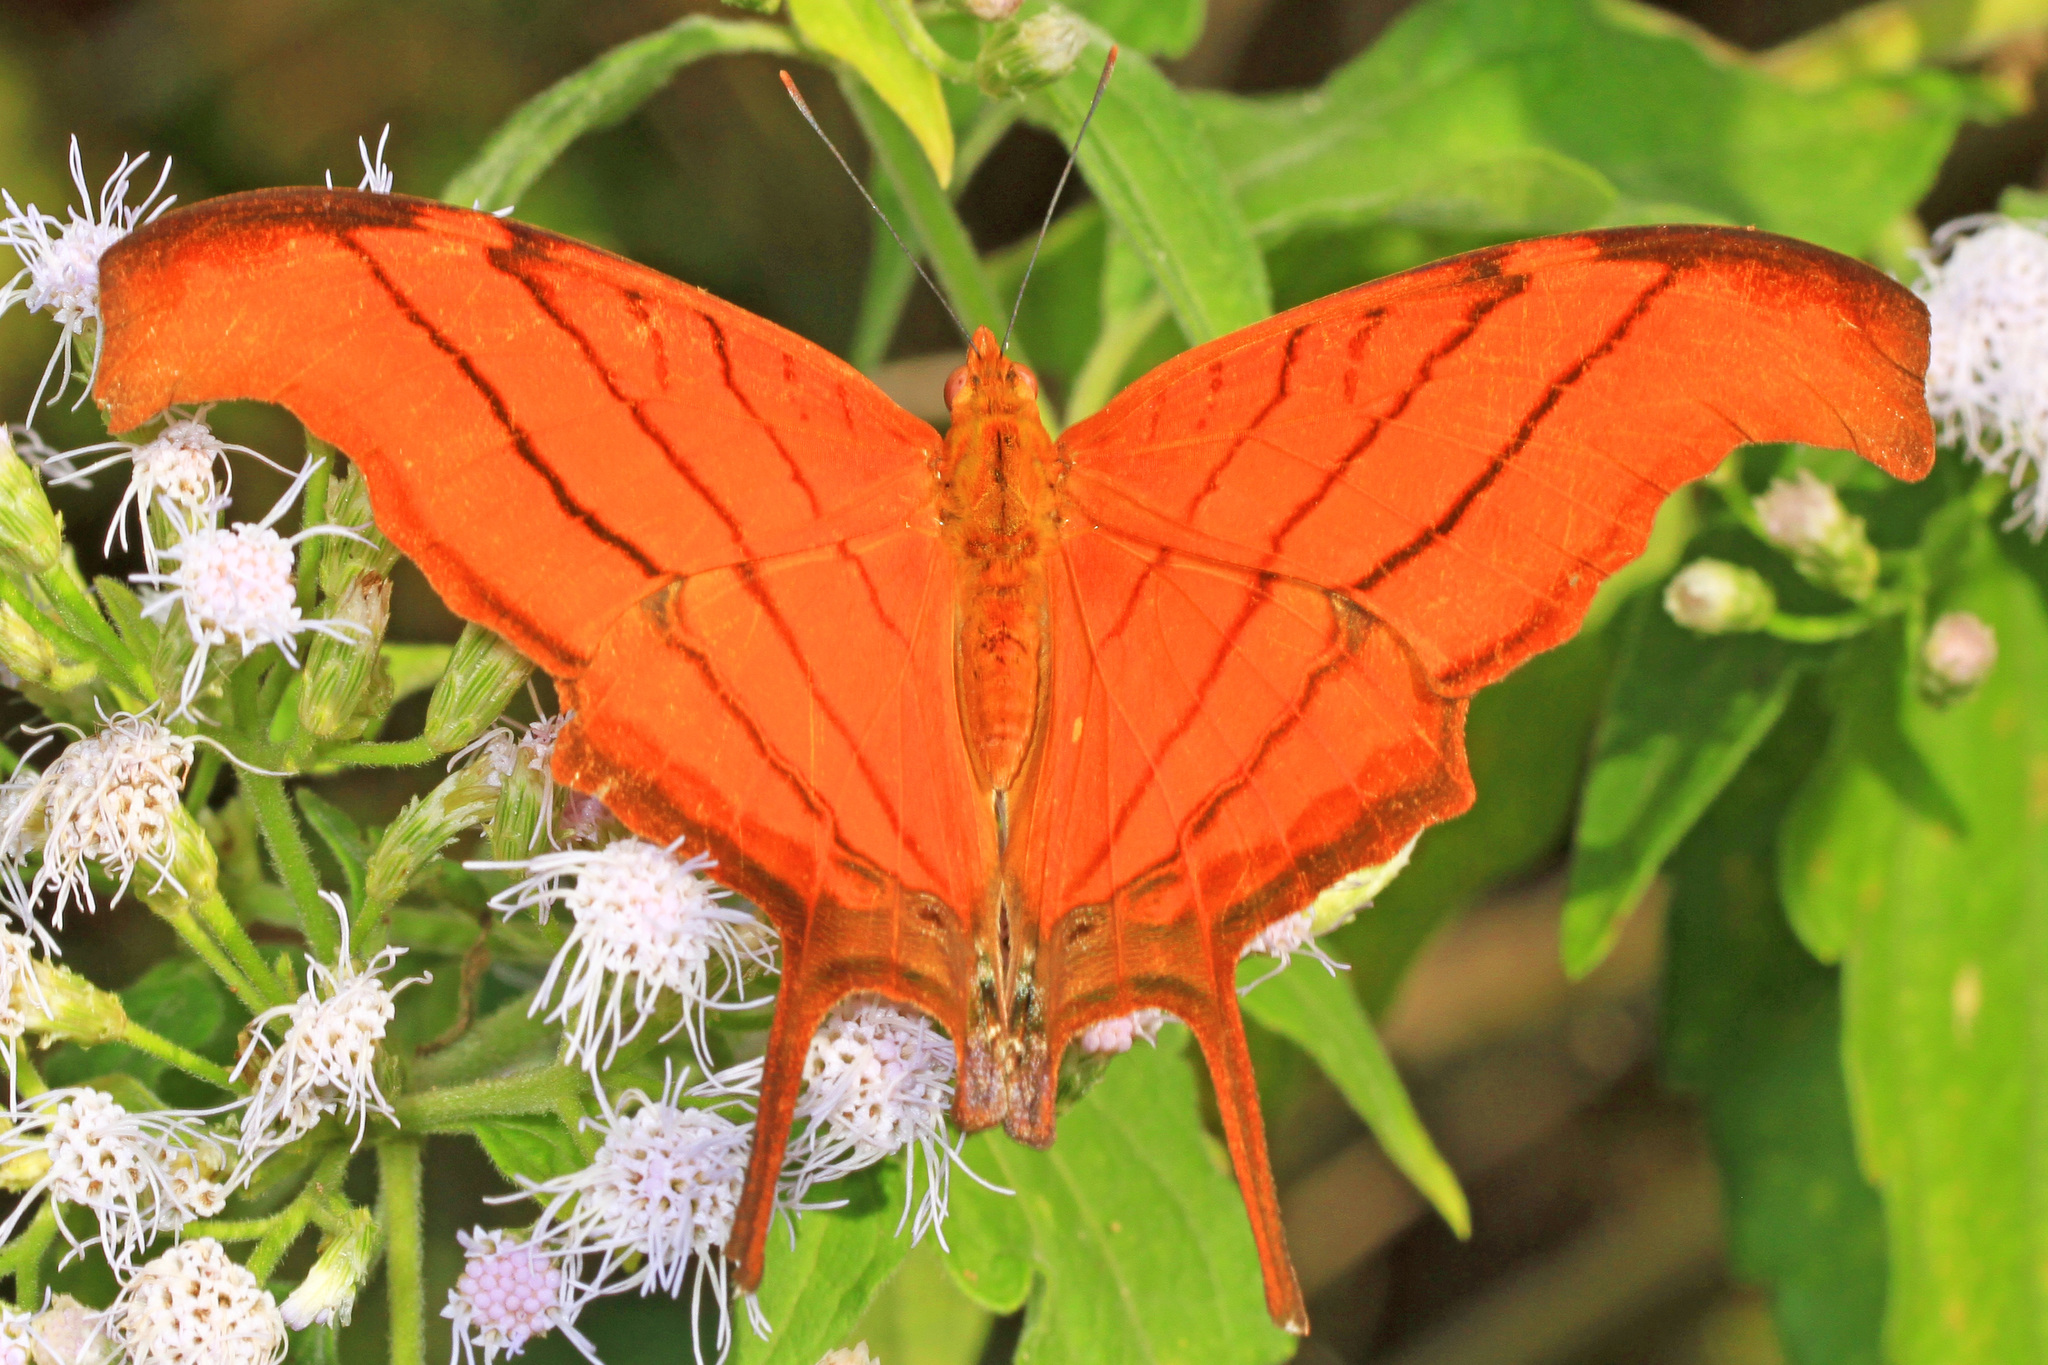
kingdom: Animalia
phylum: Arthropoda
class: Insecta
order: Lepidoptera
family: Nymphalidae
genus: Marpesia
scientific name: Marpesia petreus
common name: Red dagger wing
